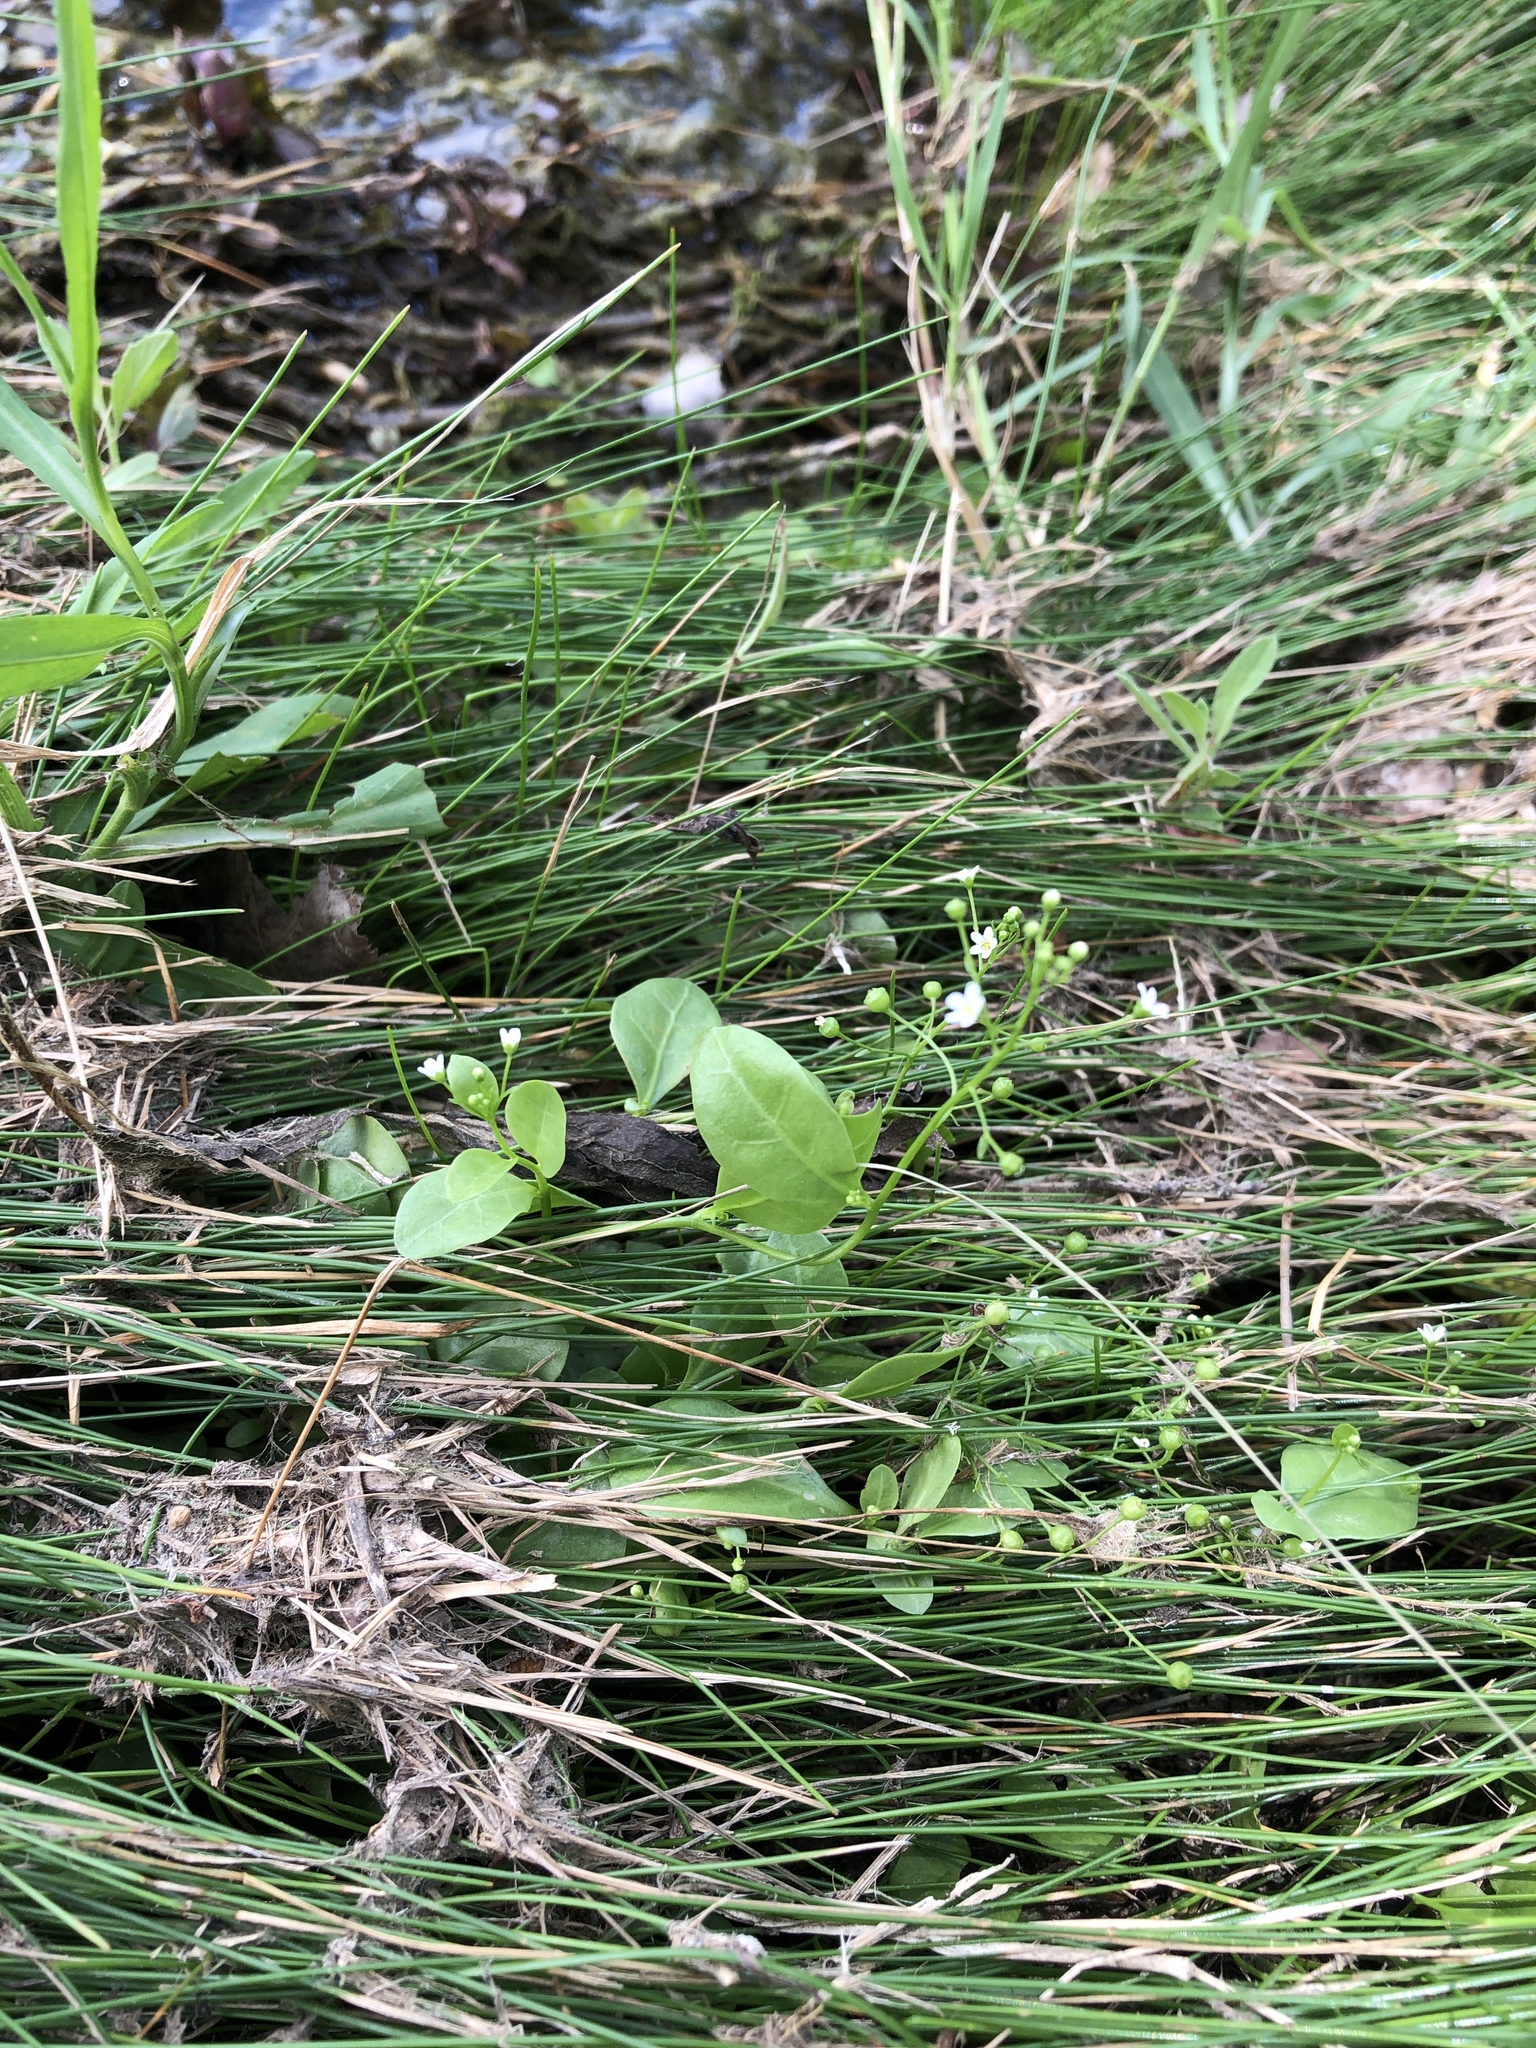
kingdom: Plantae
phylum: Tracheophyta
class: Magnoliopsida
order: Ericales
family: Primulaceae
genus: Samolus
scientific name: Samolus parviflorus
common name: False water pimpernel
